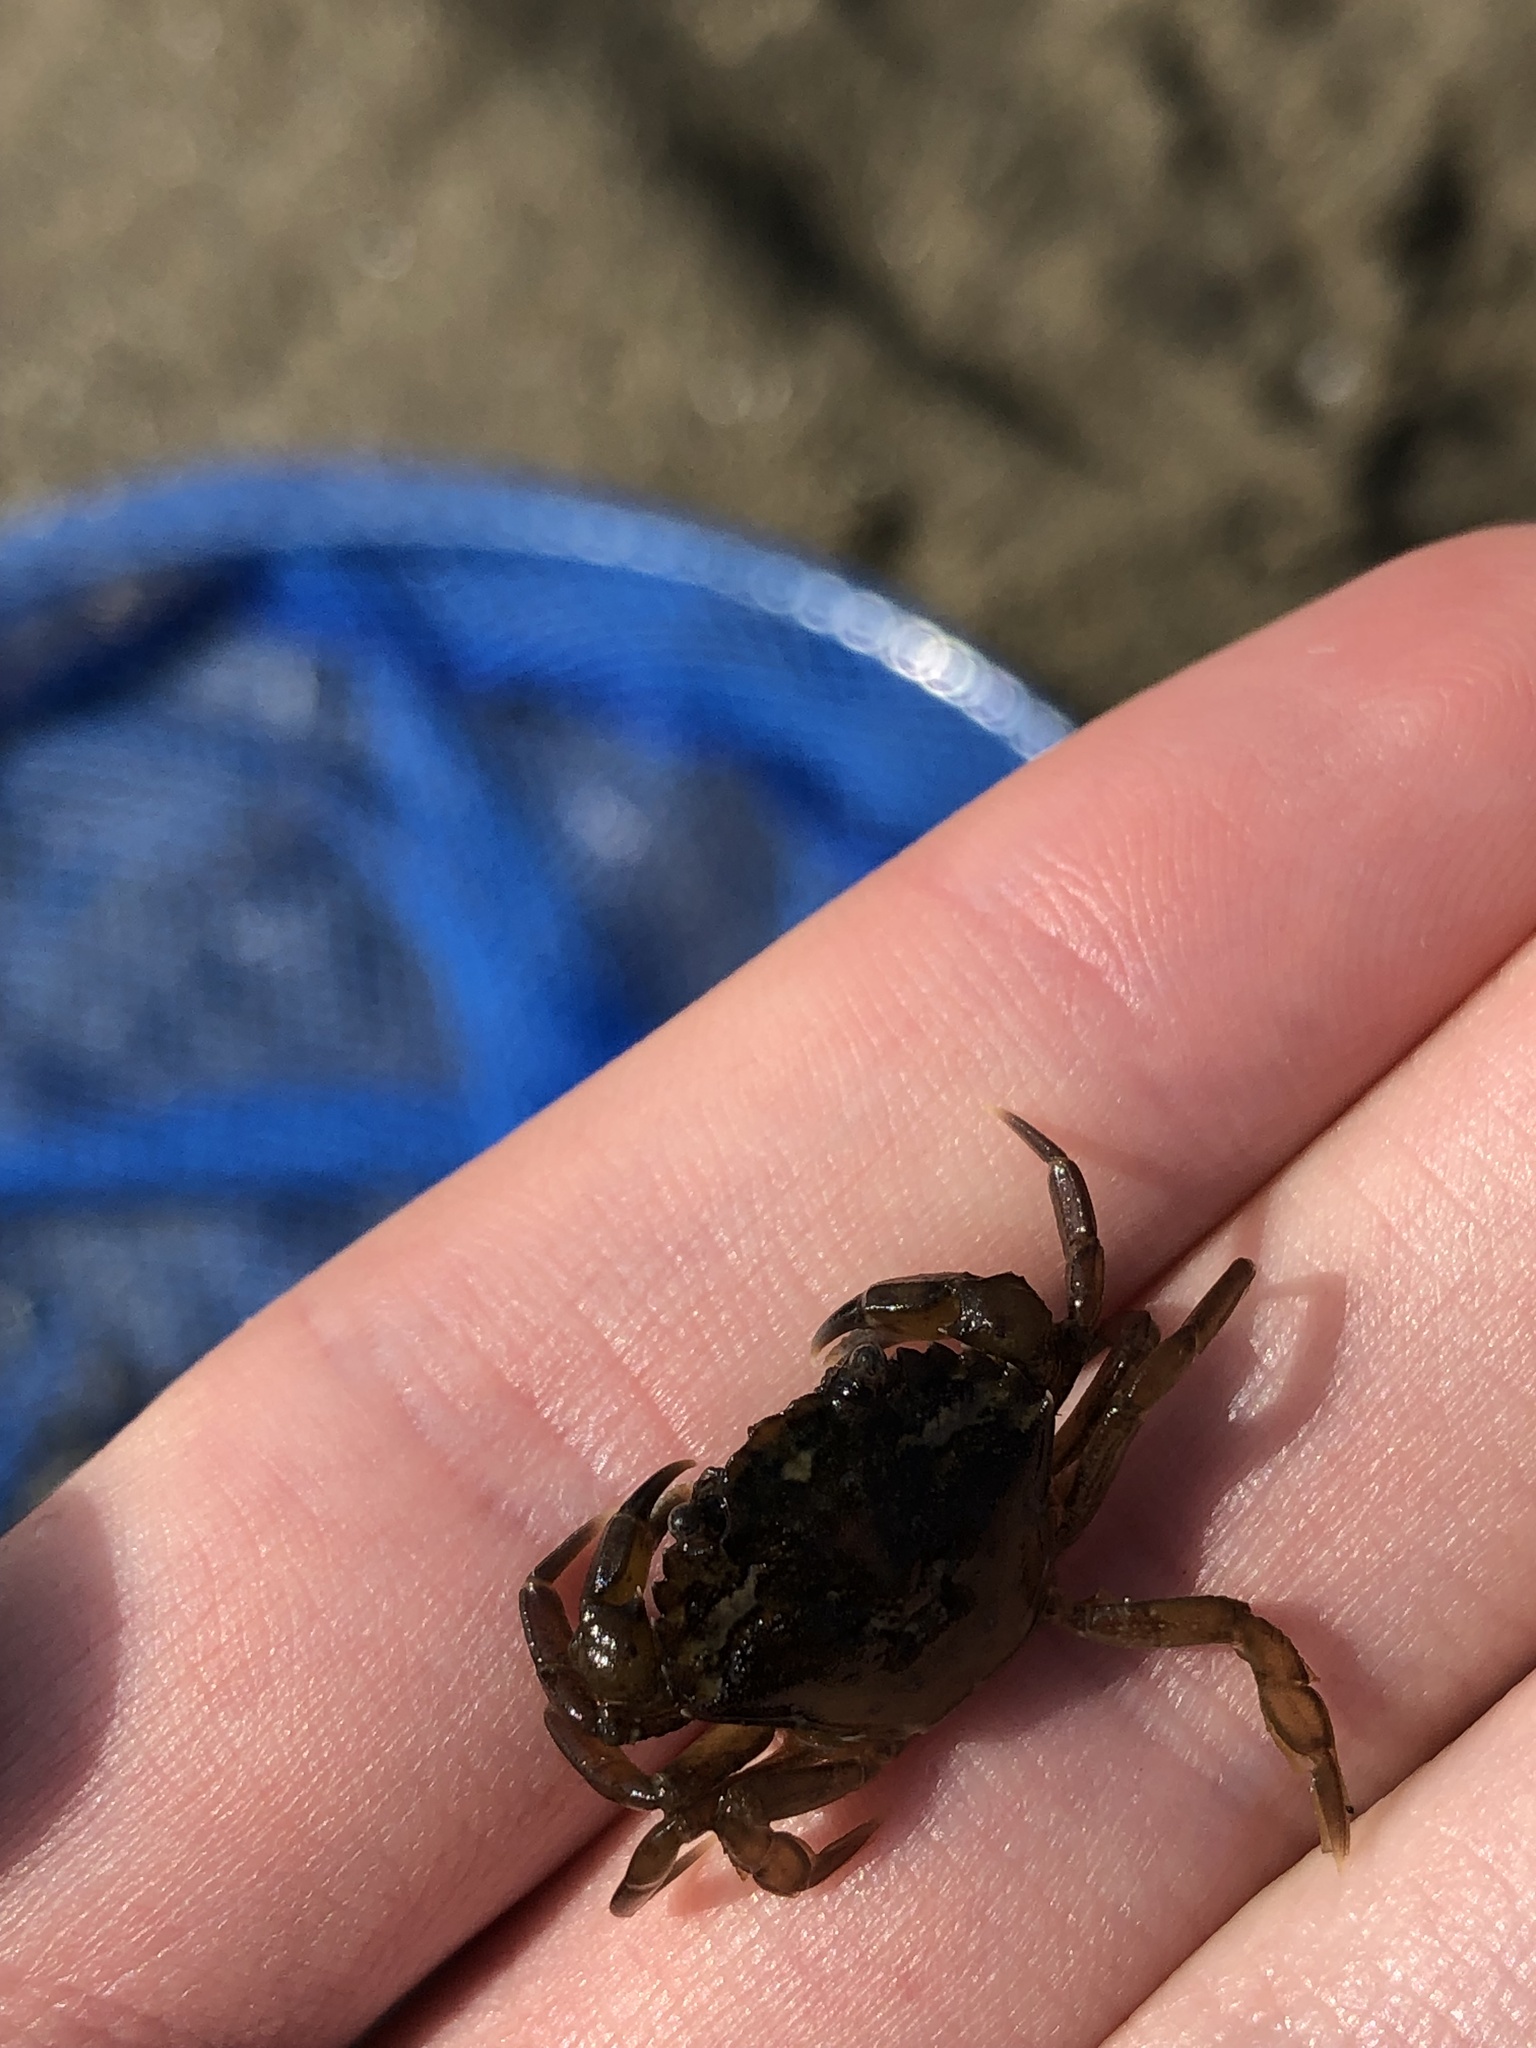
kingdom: Animalia
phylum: Arthropoda
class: Malacostraca
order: Decapoda
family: Carcinidae
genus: Carcinus
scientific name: Carcinus maenas
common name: European green crab
